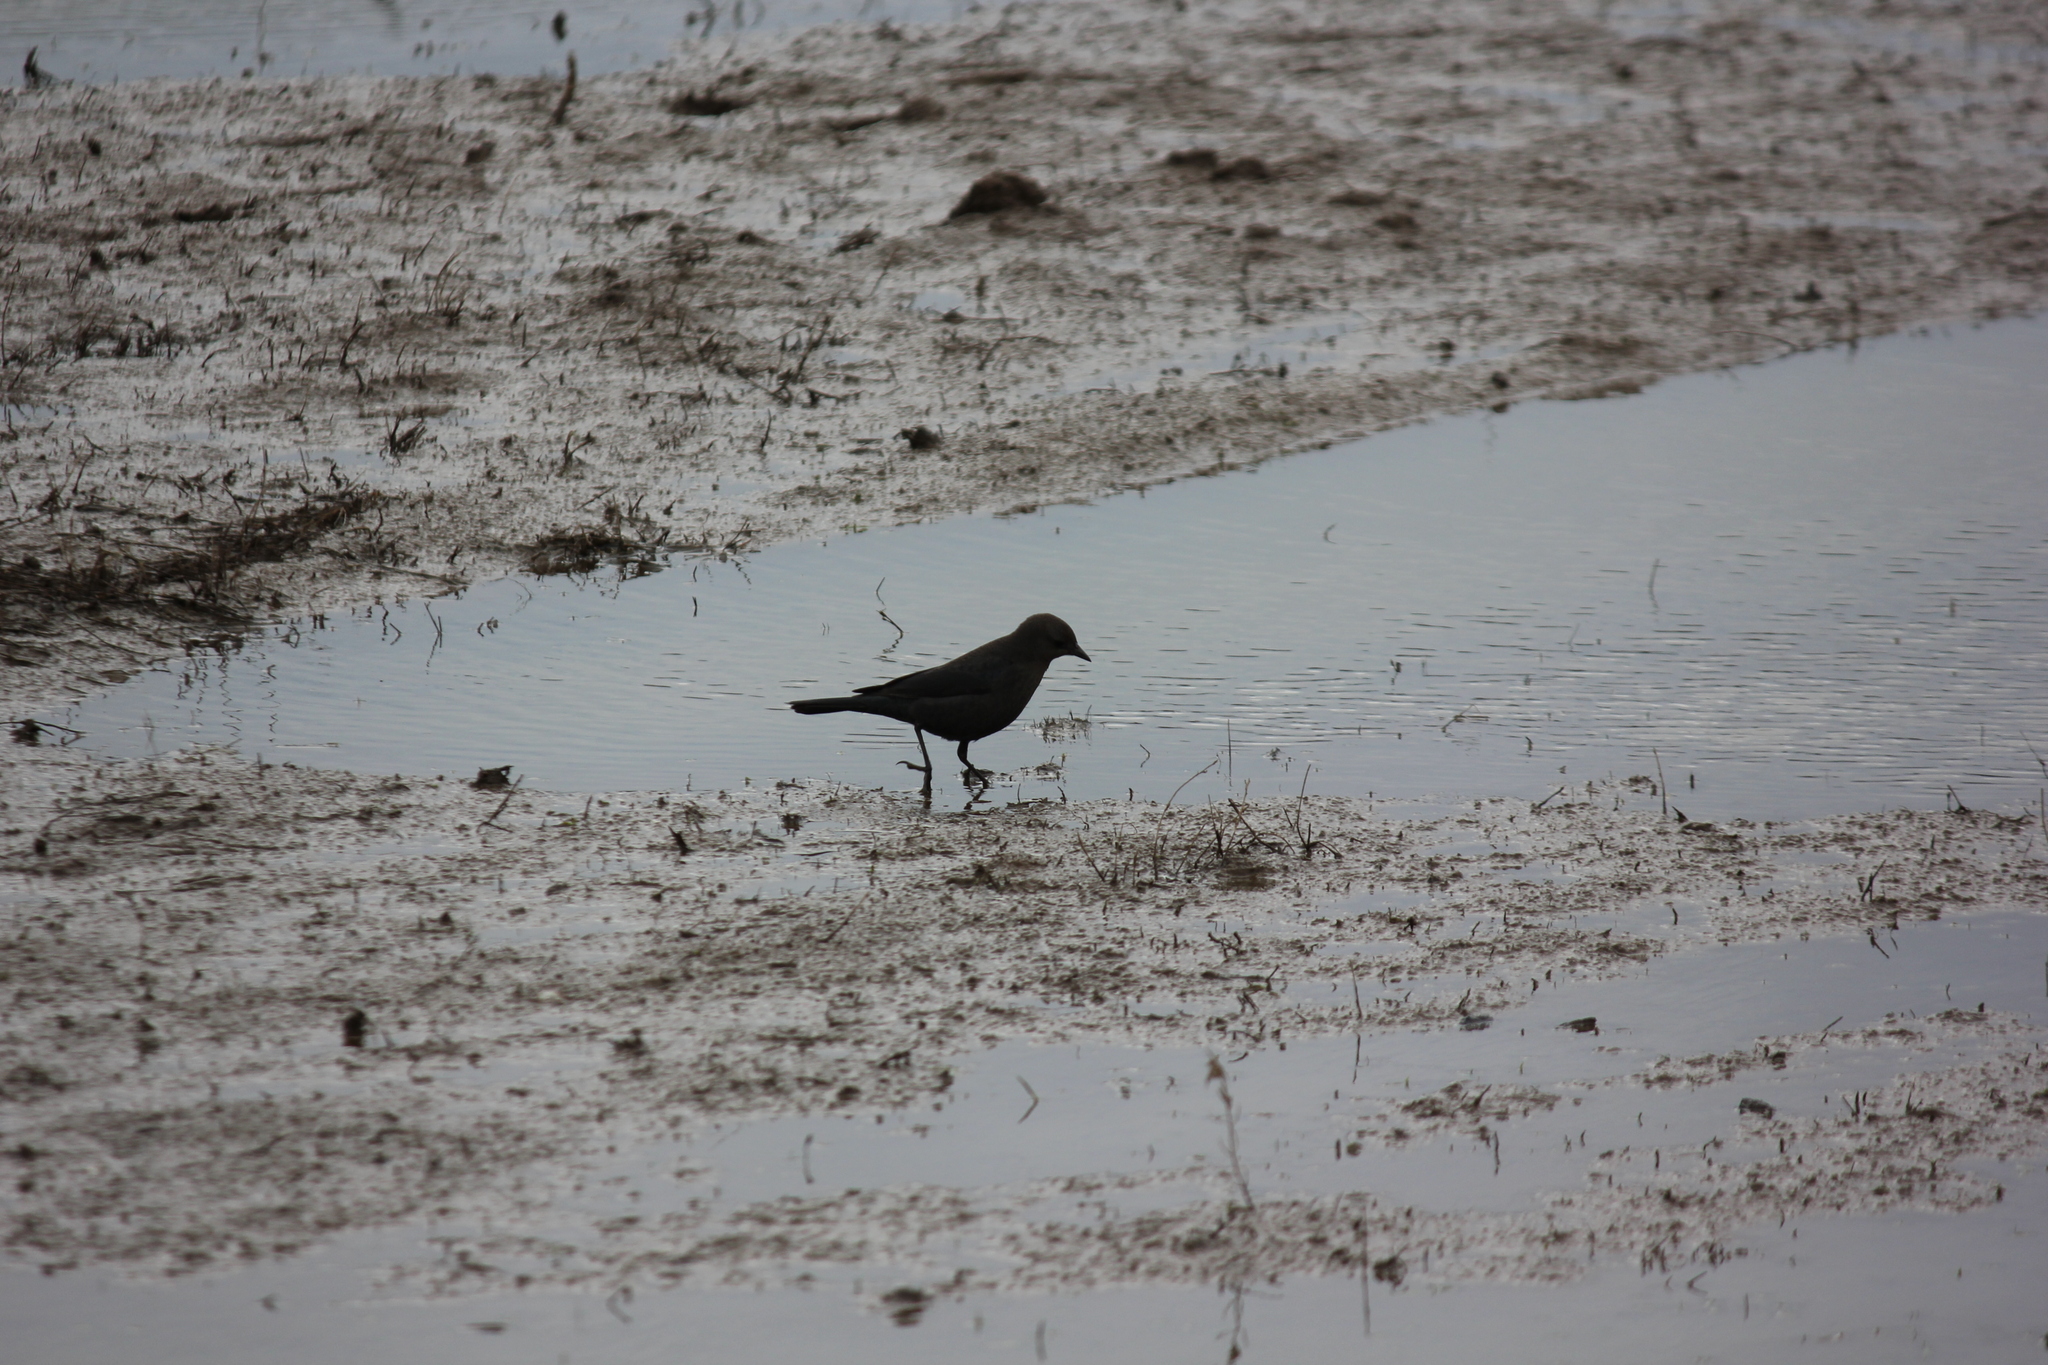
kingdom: Animalia
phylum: Chordata
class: Aves
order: Passeriformes
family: Icteridae
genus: Euphagus
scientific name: Euphagus cyanocephalus
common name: Brewer's blackbird
